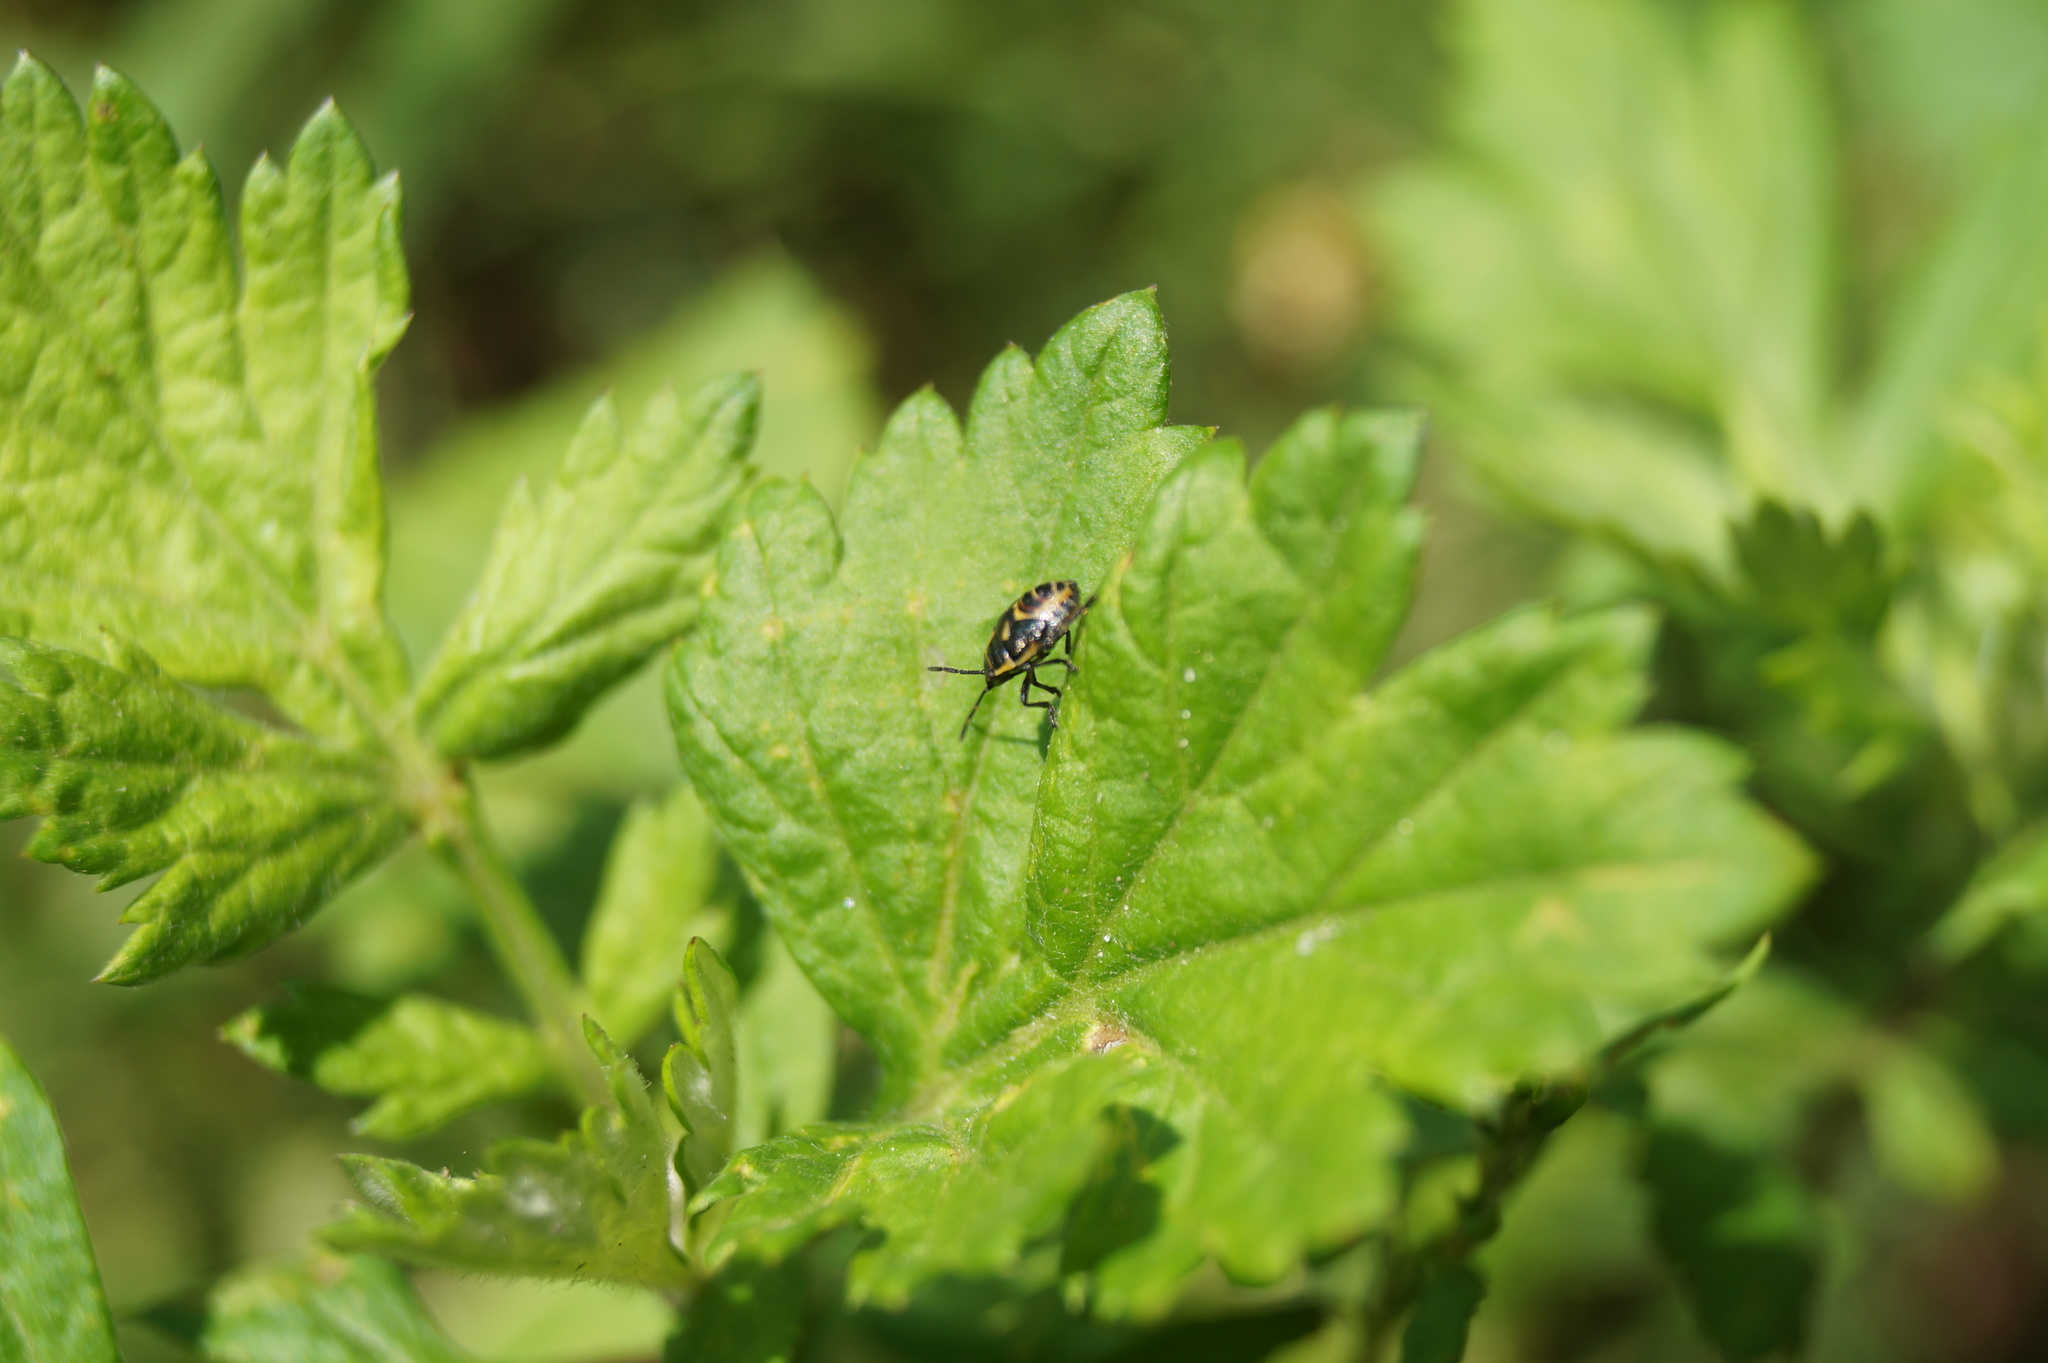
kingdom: Animalia
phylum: Arthropoda
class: Insecta
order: Hemiptera
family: Pentatomidae
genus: Eurydema
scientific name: Eurydema oleracea
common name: Cabbage bug
